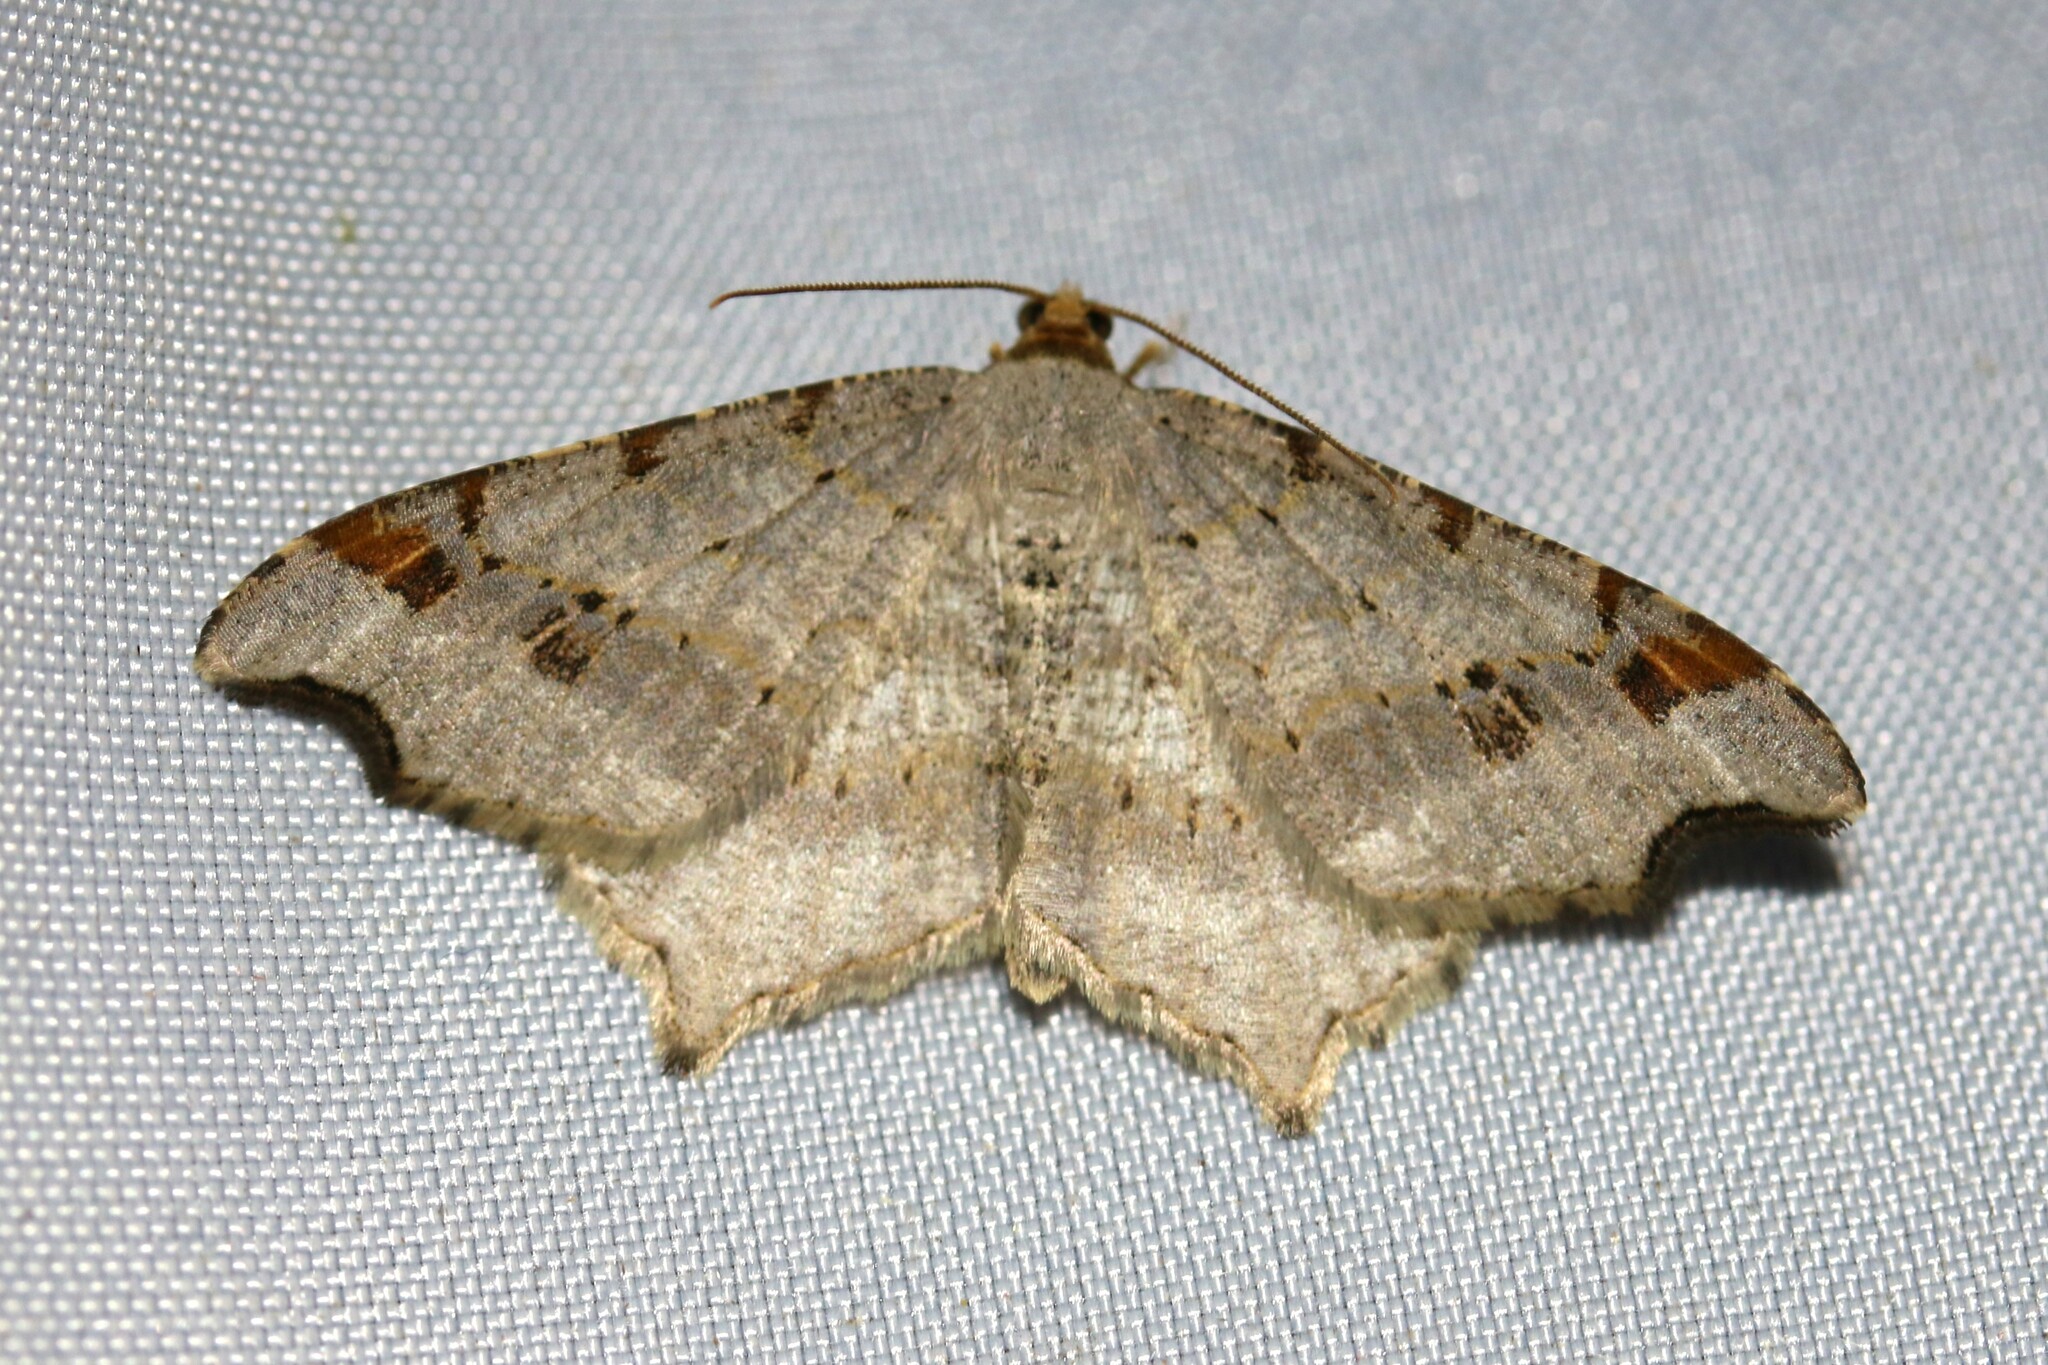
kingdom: Animalia
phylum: Arthropoda
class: Insecta
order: Lepidoptera
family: Geometridae
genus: Macaria
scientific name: Macaria alternata
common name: Sharp-angled peacock
